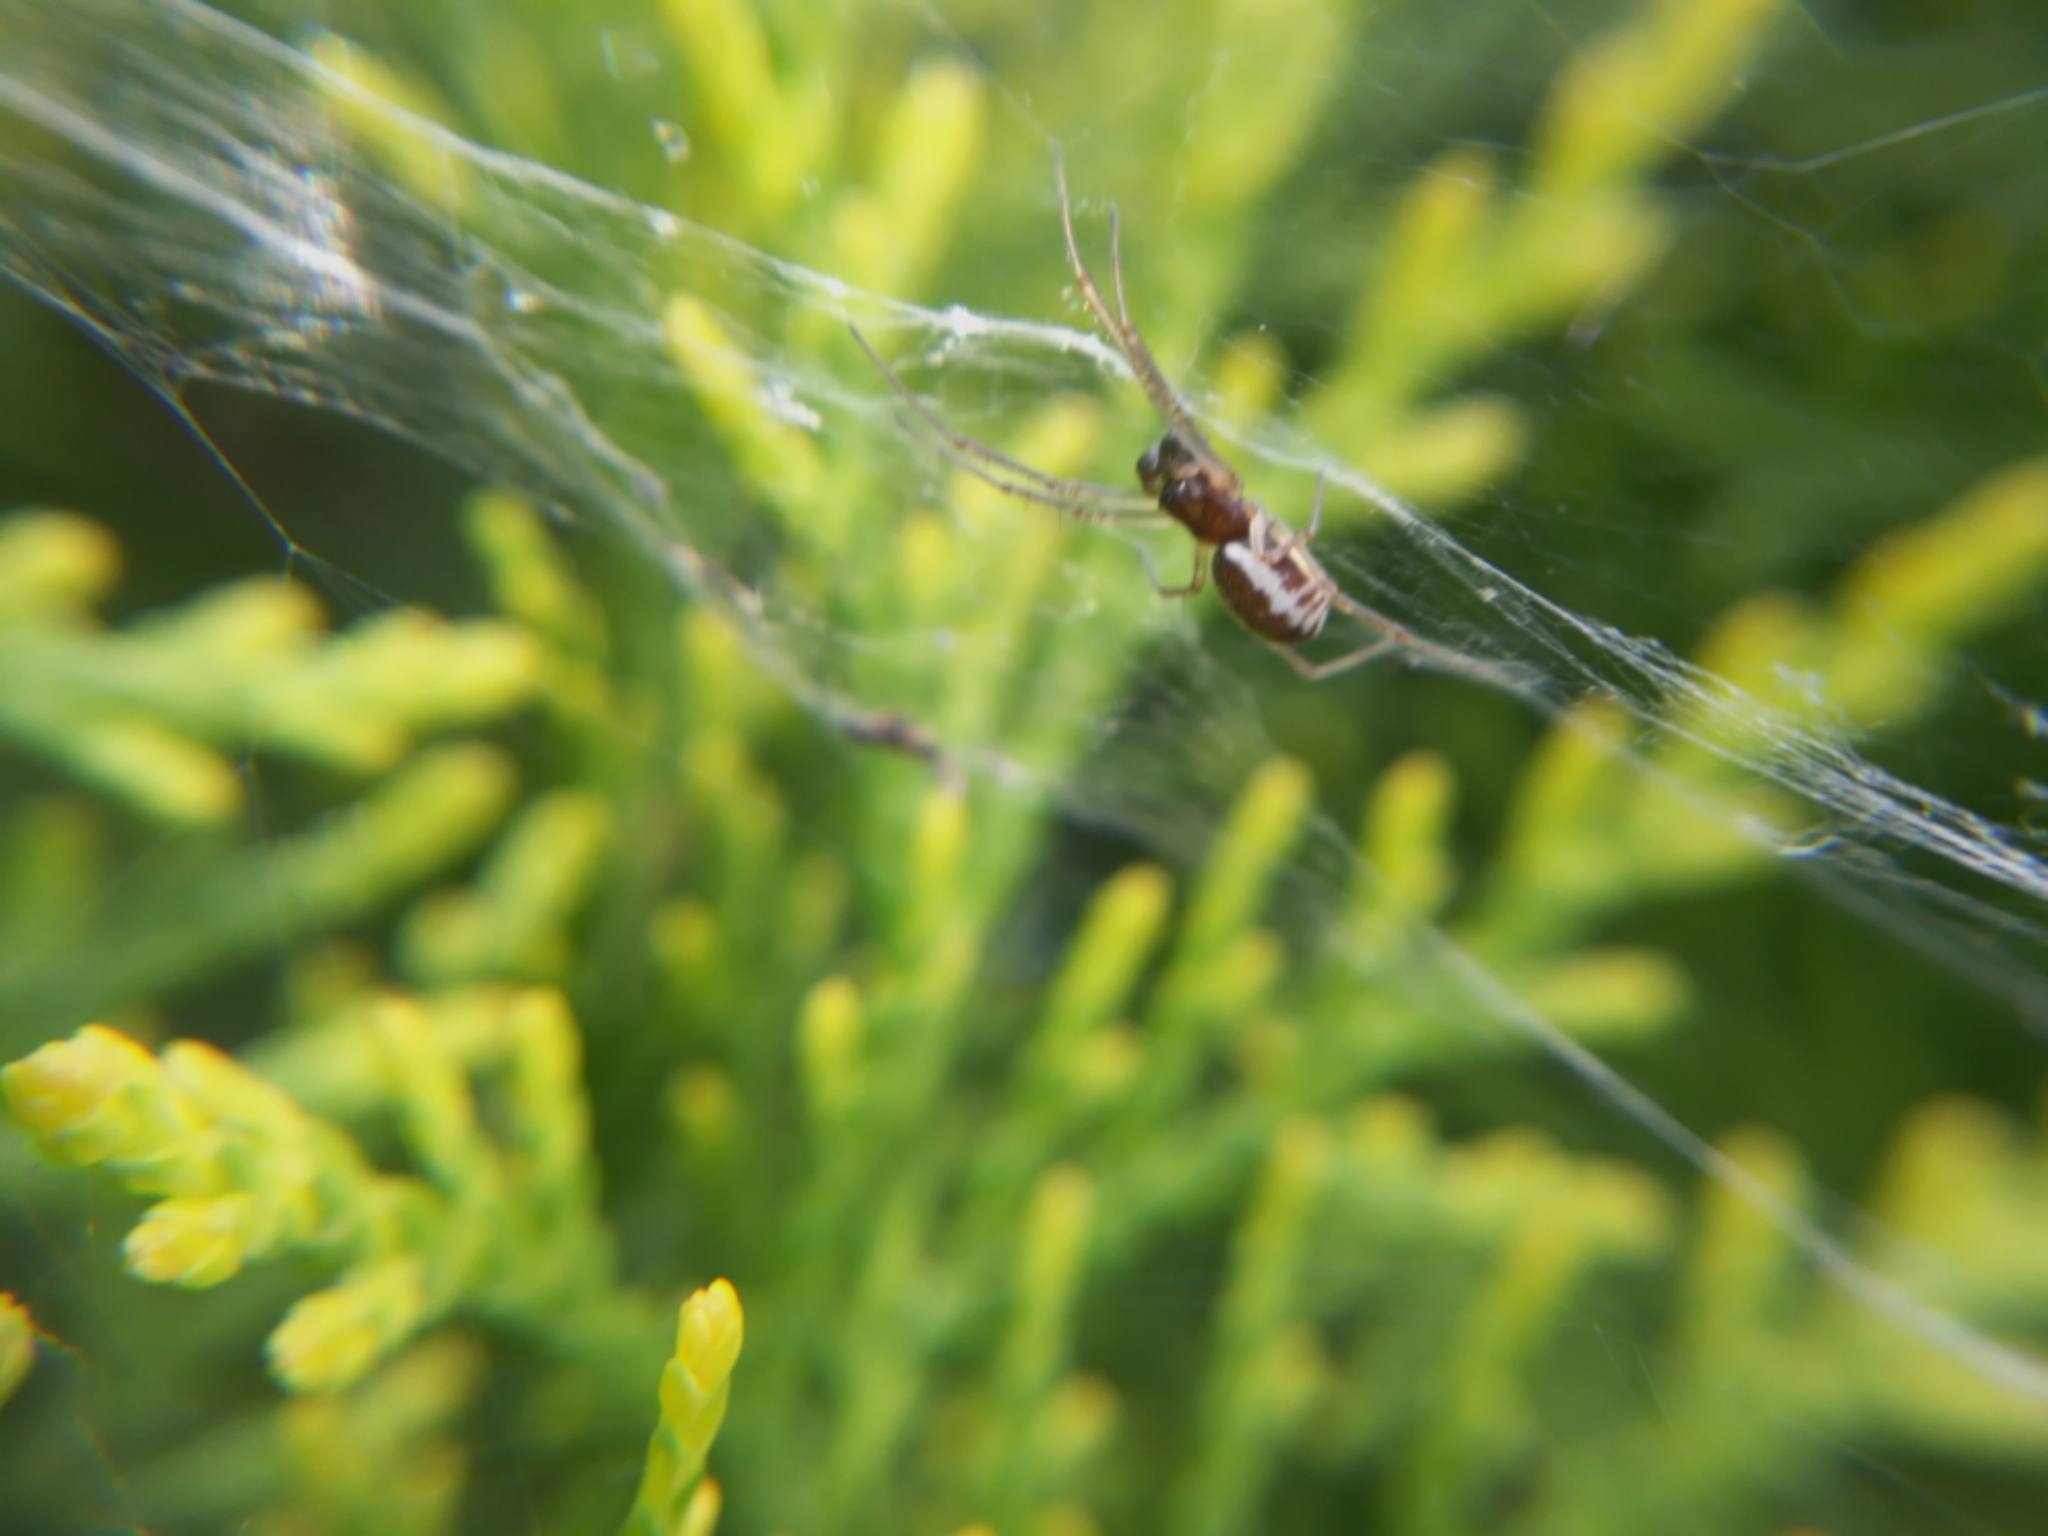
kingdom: Animalia
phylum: Arthropoda
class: Arachnida
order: Araneae
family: Linyphiidae
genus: Frontinellina
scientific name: Frontinellina frutetorum
